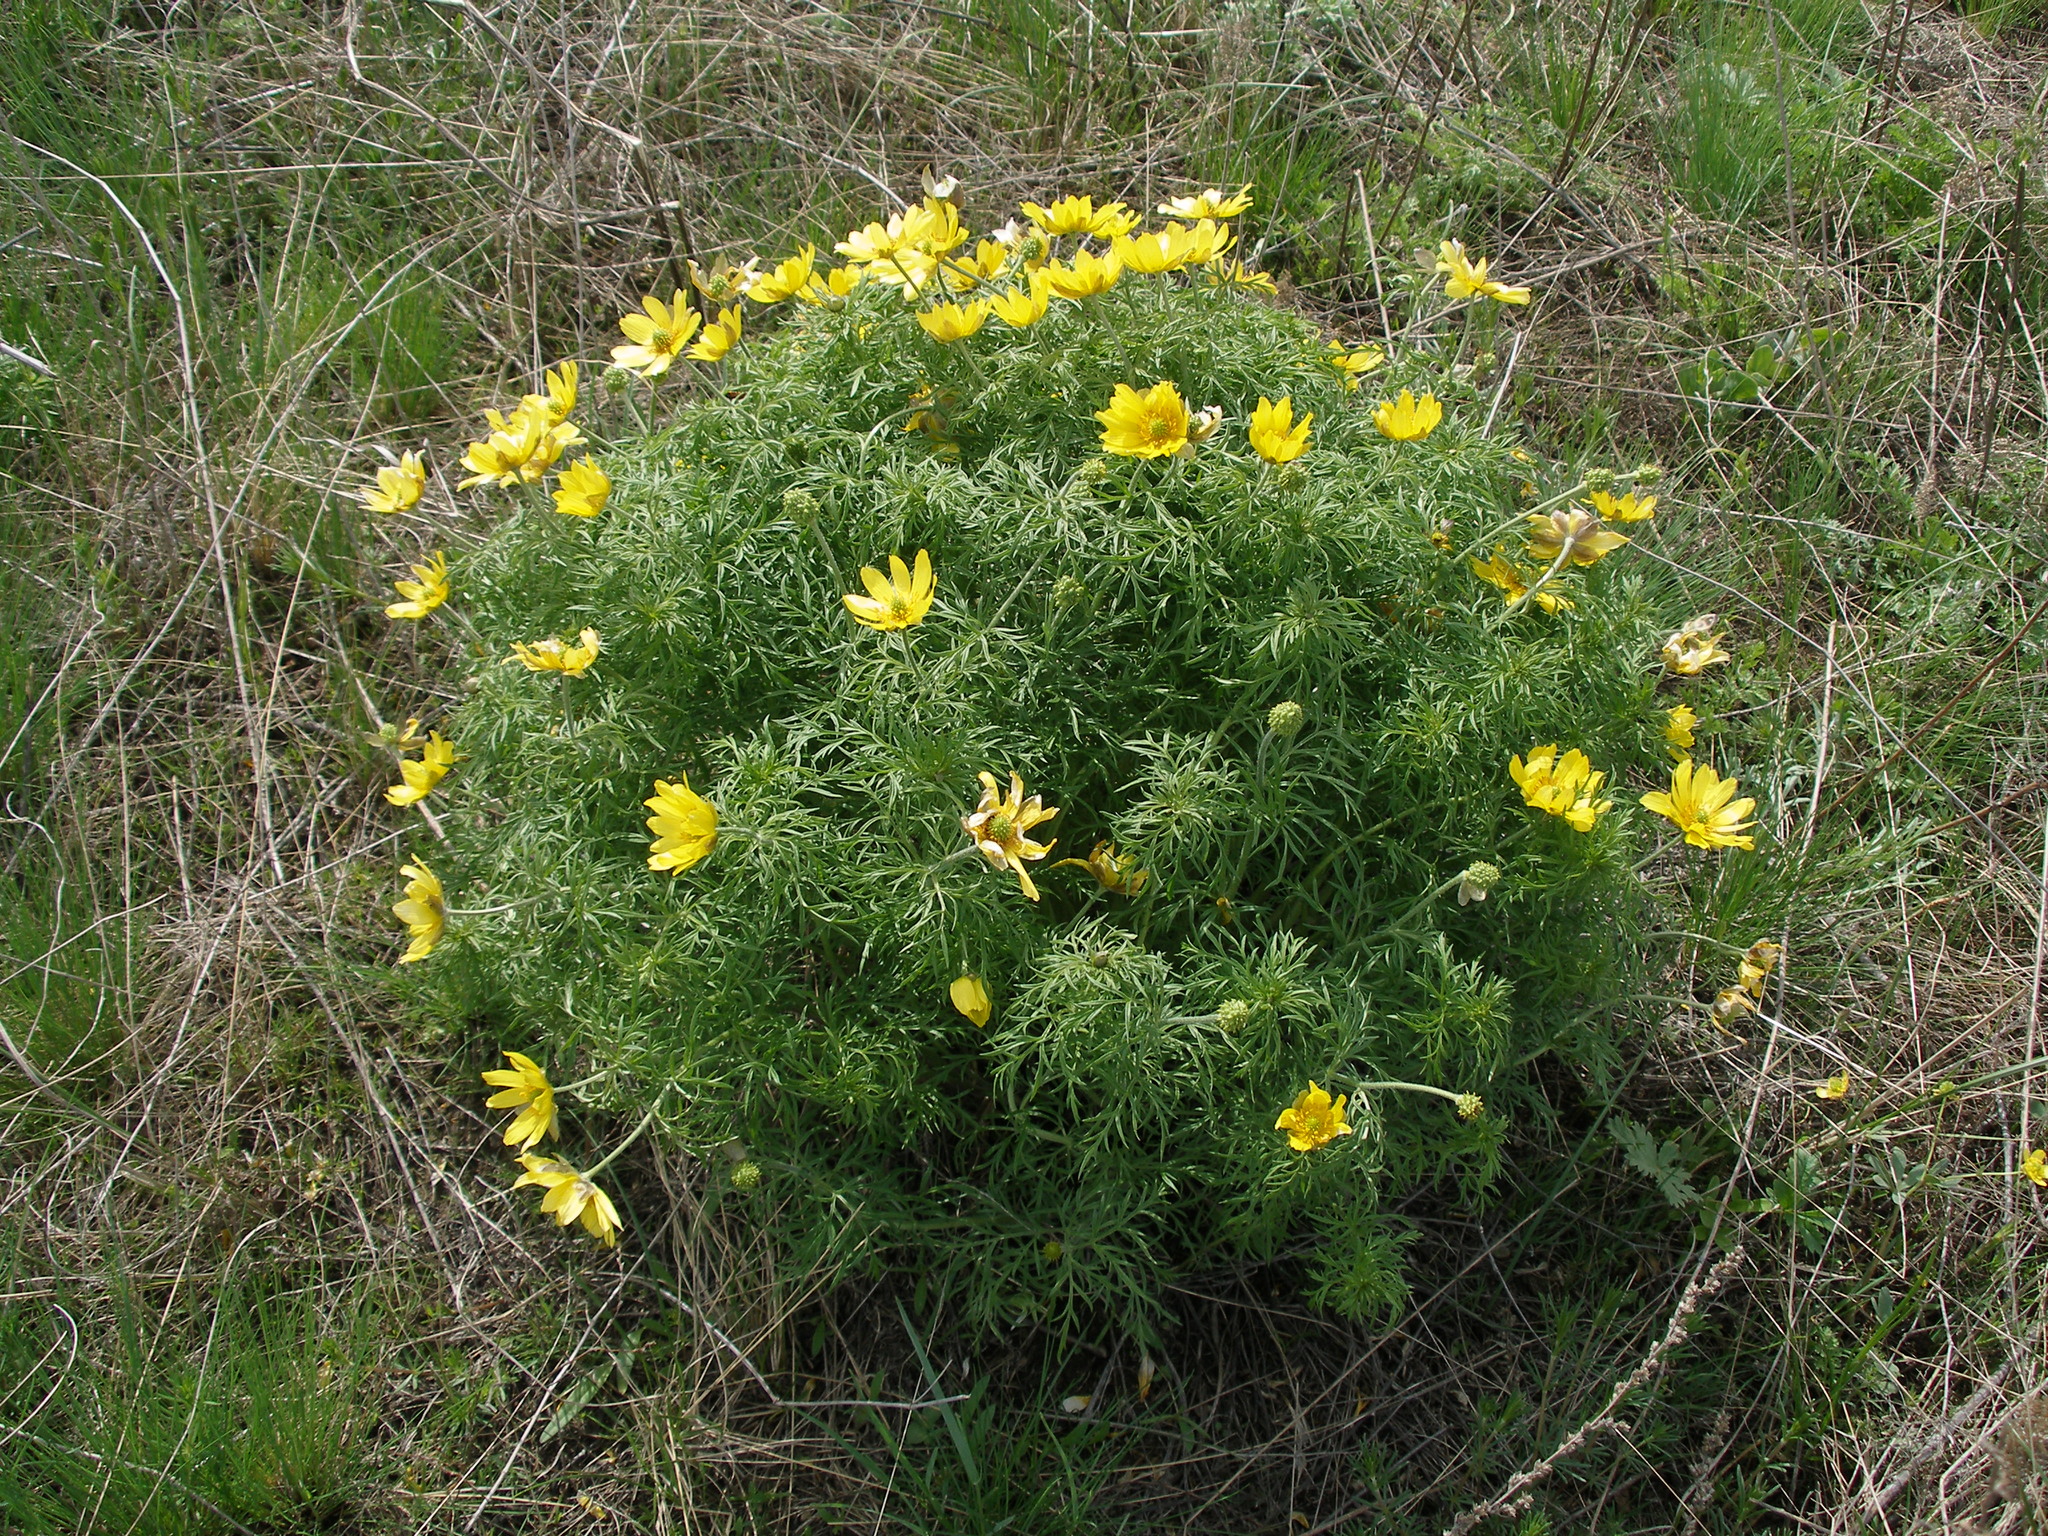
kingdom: Plantae
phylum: Tracheophyta
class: Magnoliopsida
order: Ranunculales
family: Ranunculaceae
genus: Adonis
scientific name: Adonis volgensis
